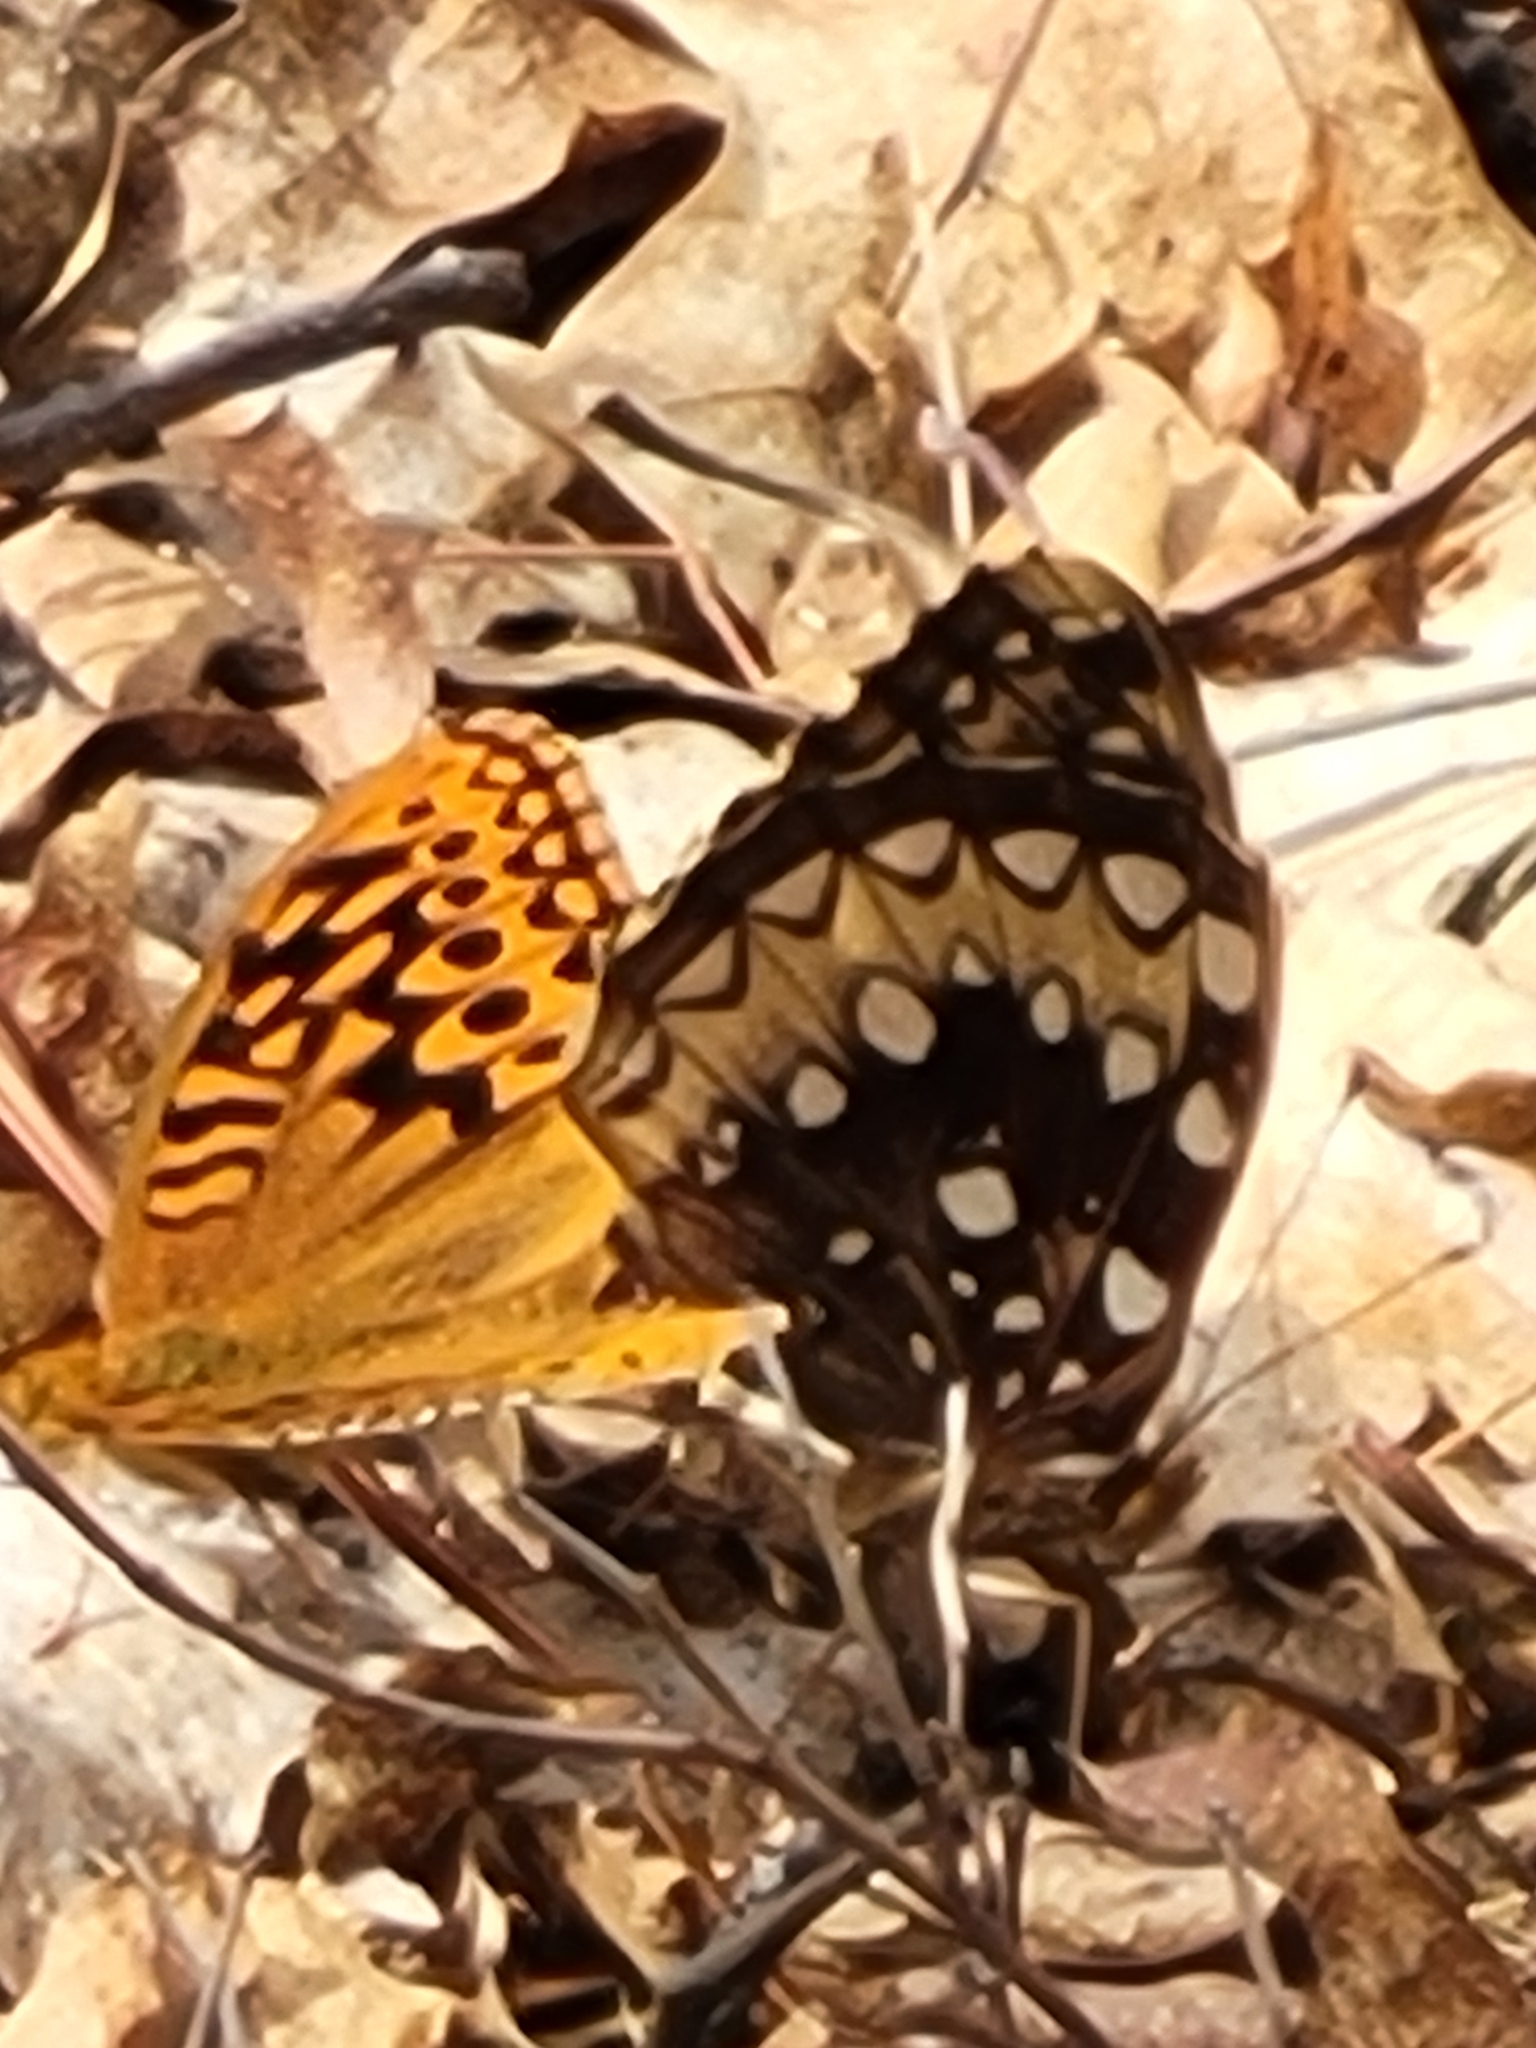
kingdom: Animalia
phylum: Arthropoda
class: Insecta
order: Lepidoptera
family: Nymphalidae
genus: Speyeria
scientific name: Speyeria cybele
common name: Great spangled fritillary
